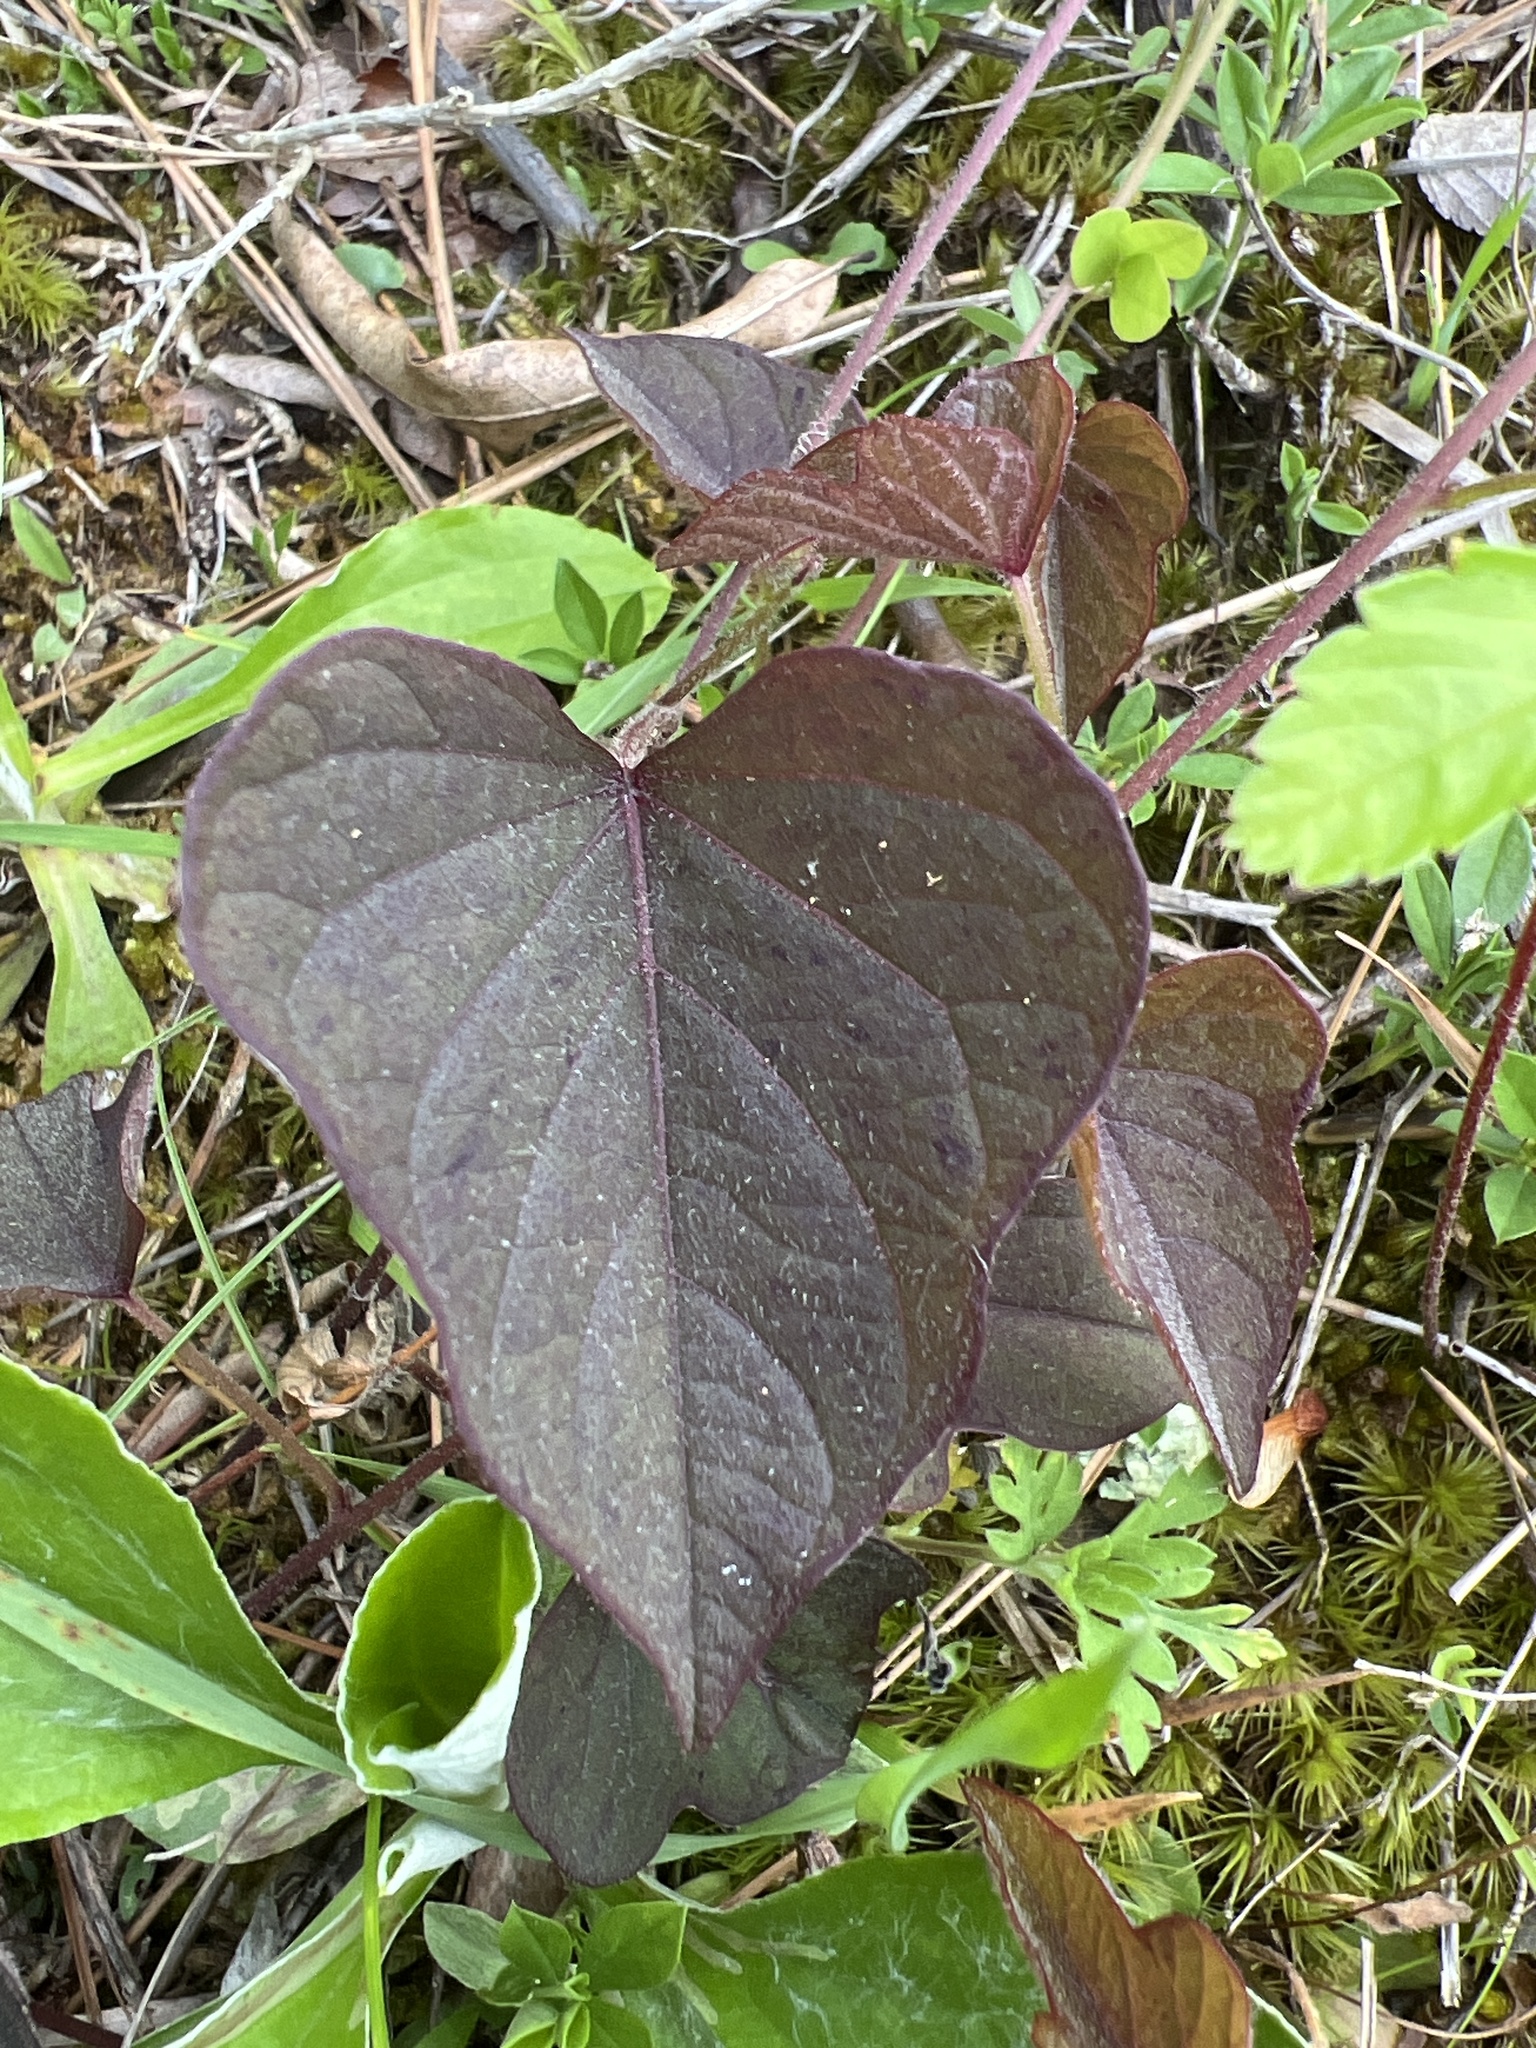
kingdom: Plantae
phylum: Tracheophyta
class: Magnoliopsida
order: Solanales
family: Convolvulaceae
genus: Ipomoea
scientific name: Ipomoea pandurata
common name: Man-of-the-earth
